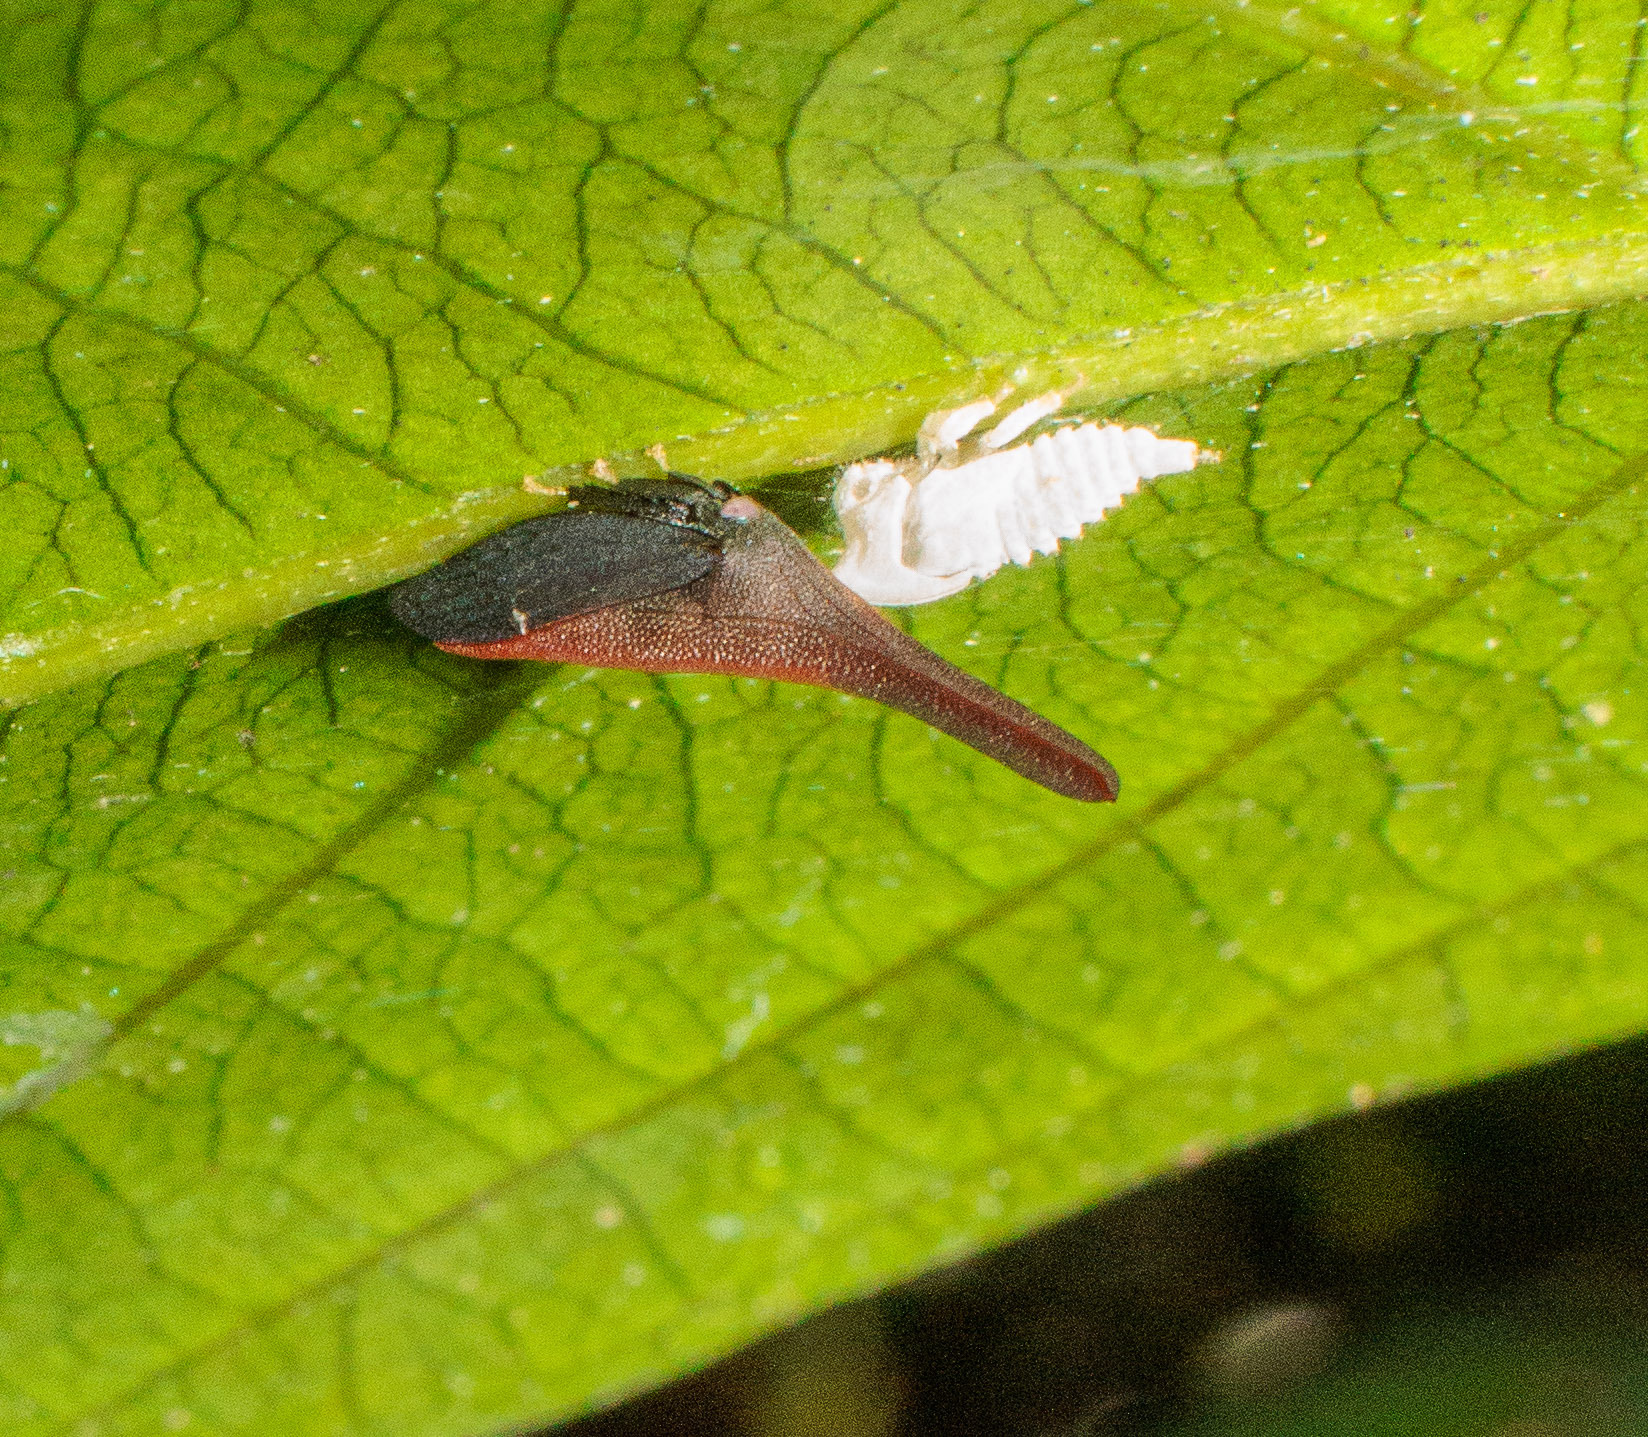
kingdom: Animalia
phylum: Arthropoda
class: Insecta
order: Hemiptera
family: Membracidae
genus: Enchenopa
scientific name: Enchenopa gladius
